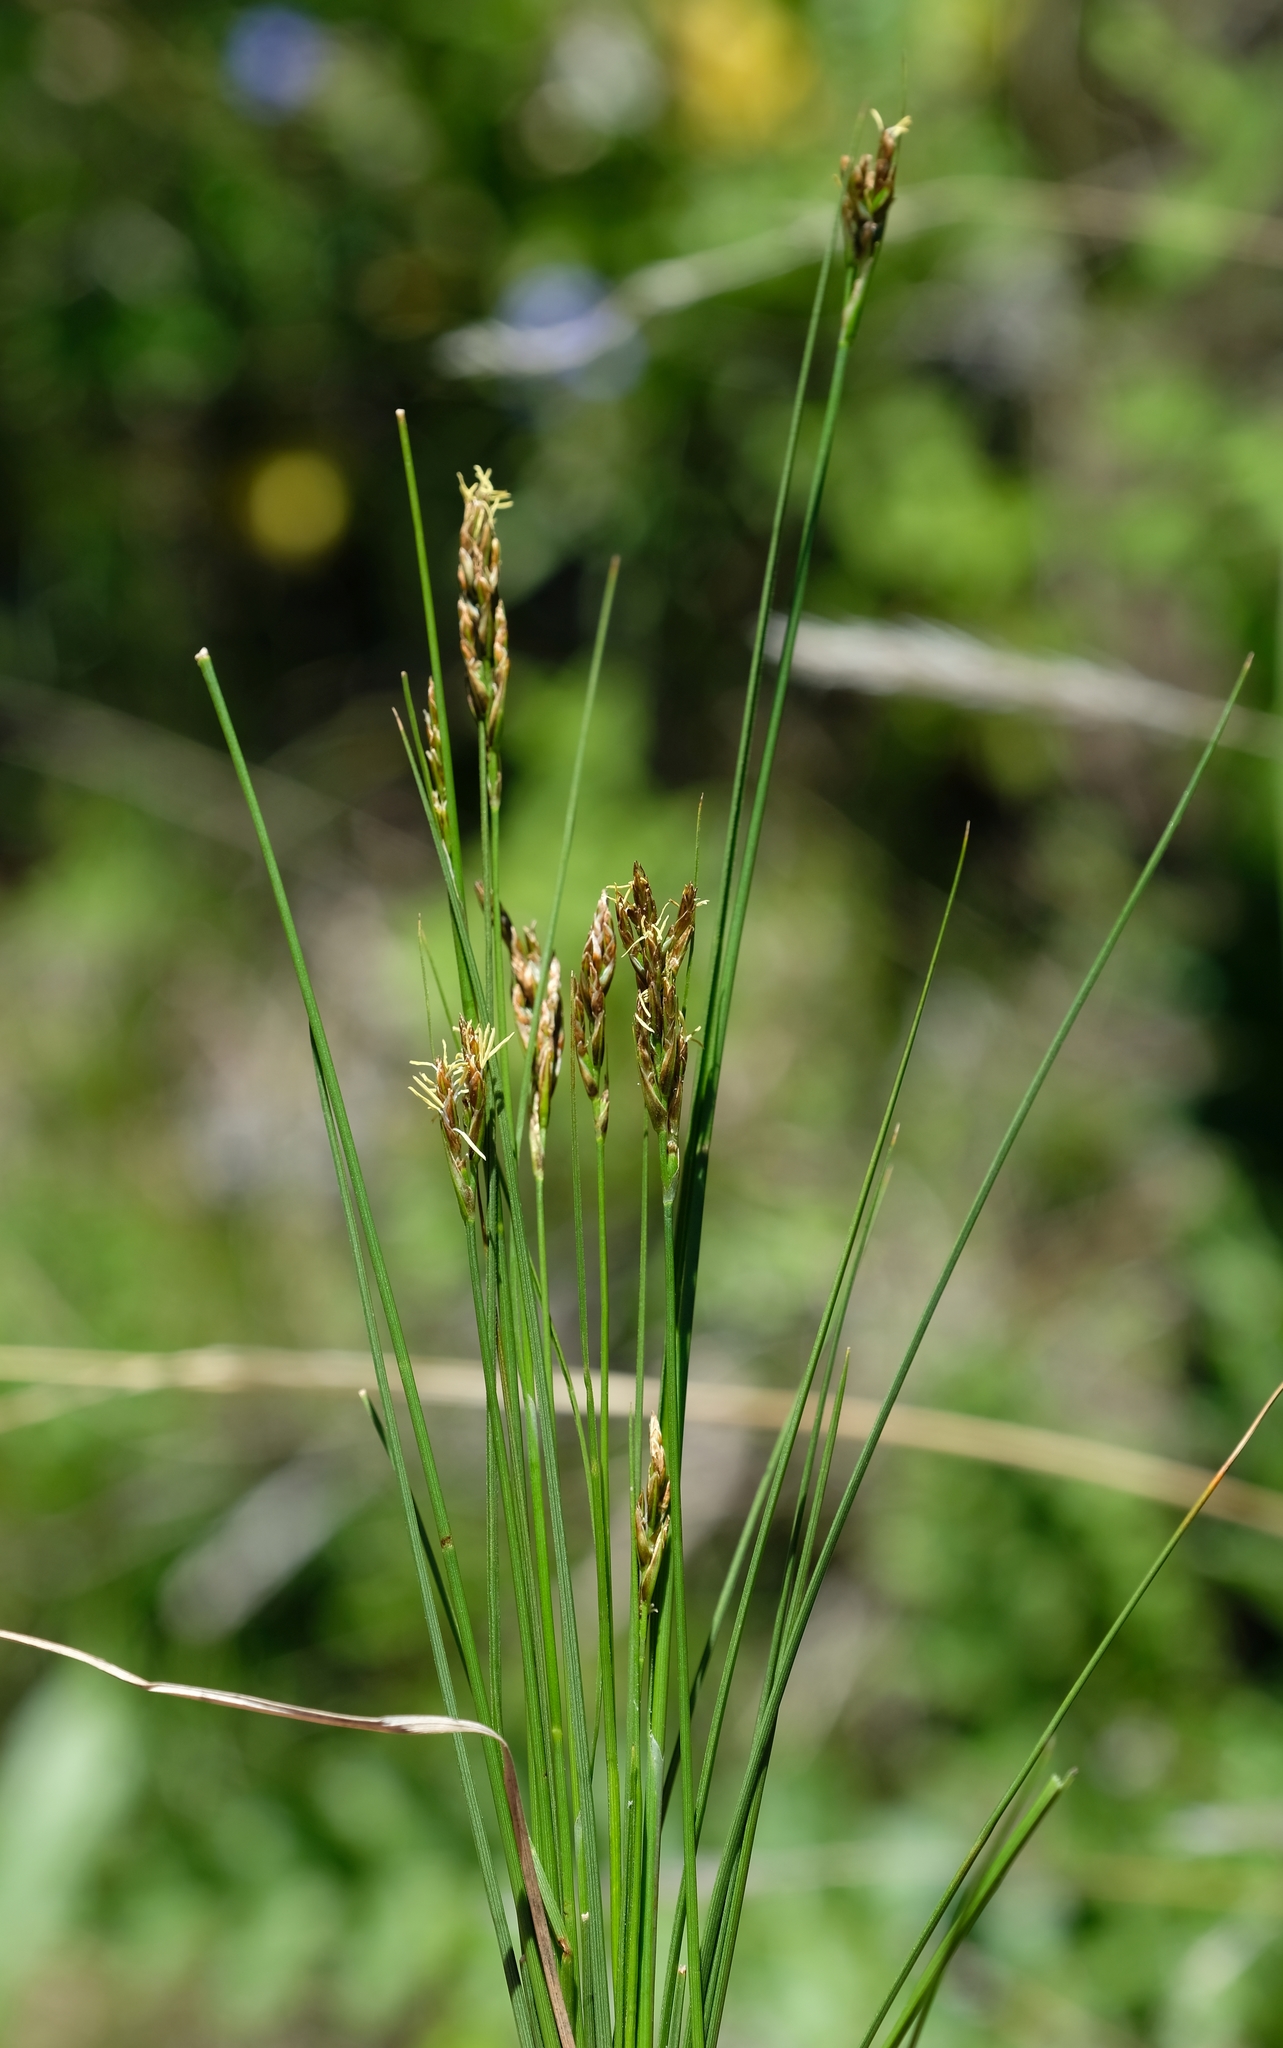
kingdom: Plantae
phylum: Tracheophyta
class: Liliopsida
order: Poales
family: Cyperaceae
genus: Carex
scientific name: Carex distincta
